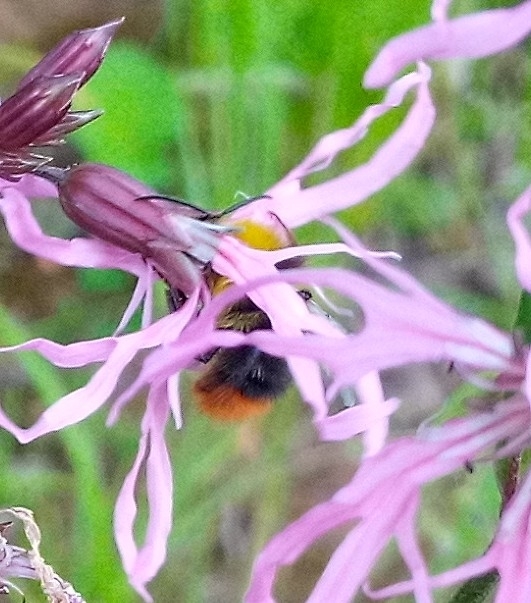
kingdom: Animalia
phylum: Arthropoda
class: Insecta
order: Hymenoptera
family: Apidae
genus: Bombus
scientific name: Bombus pratorum
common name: Early humble-bee
